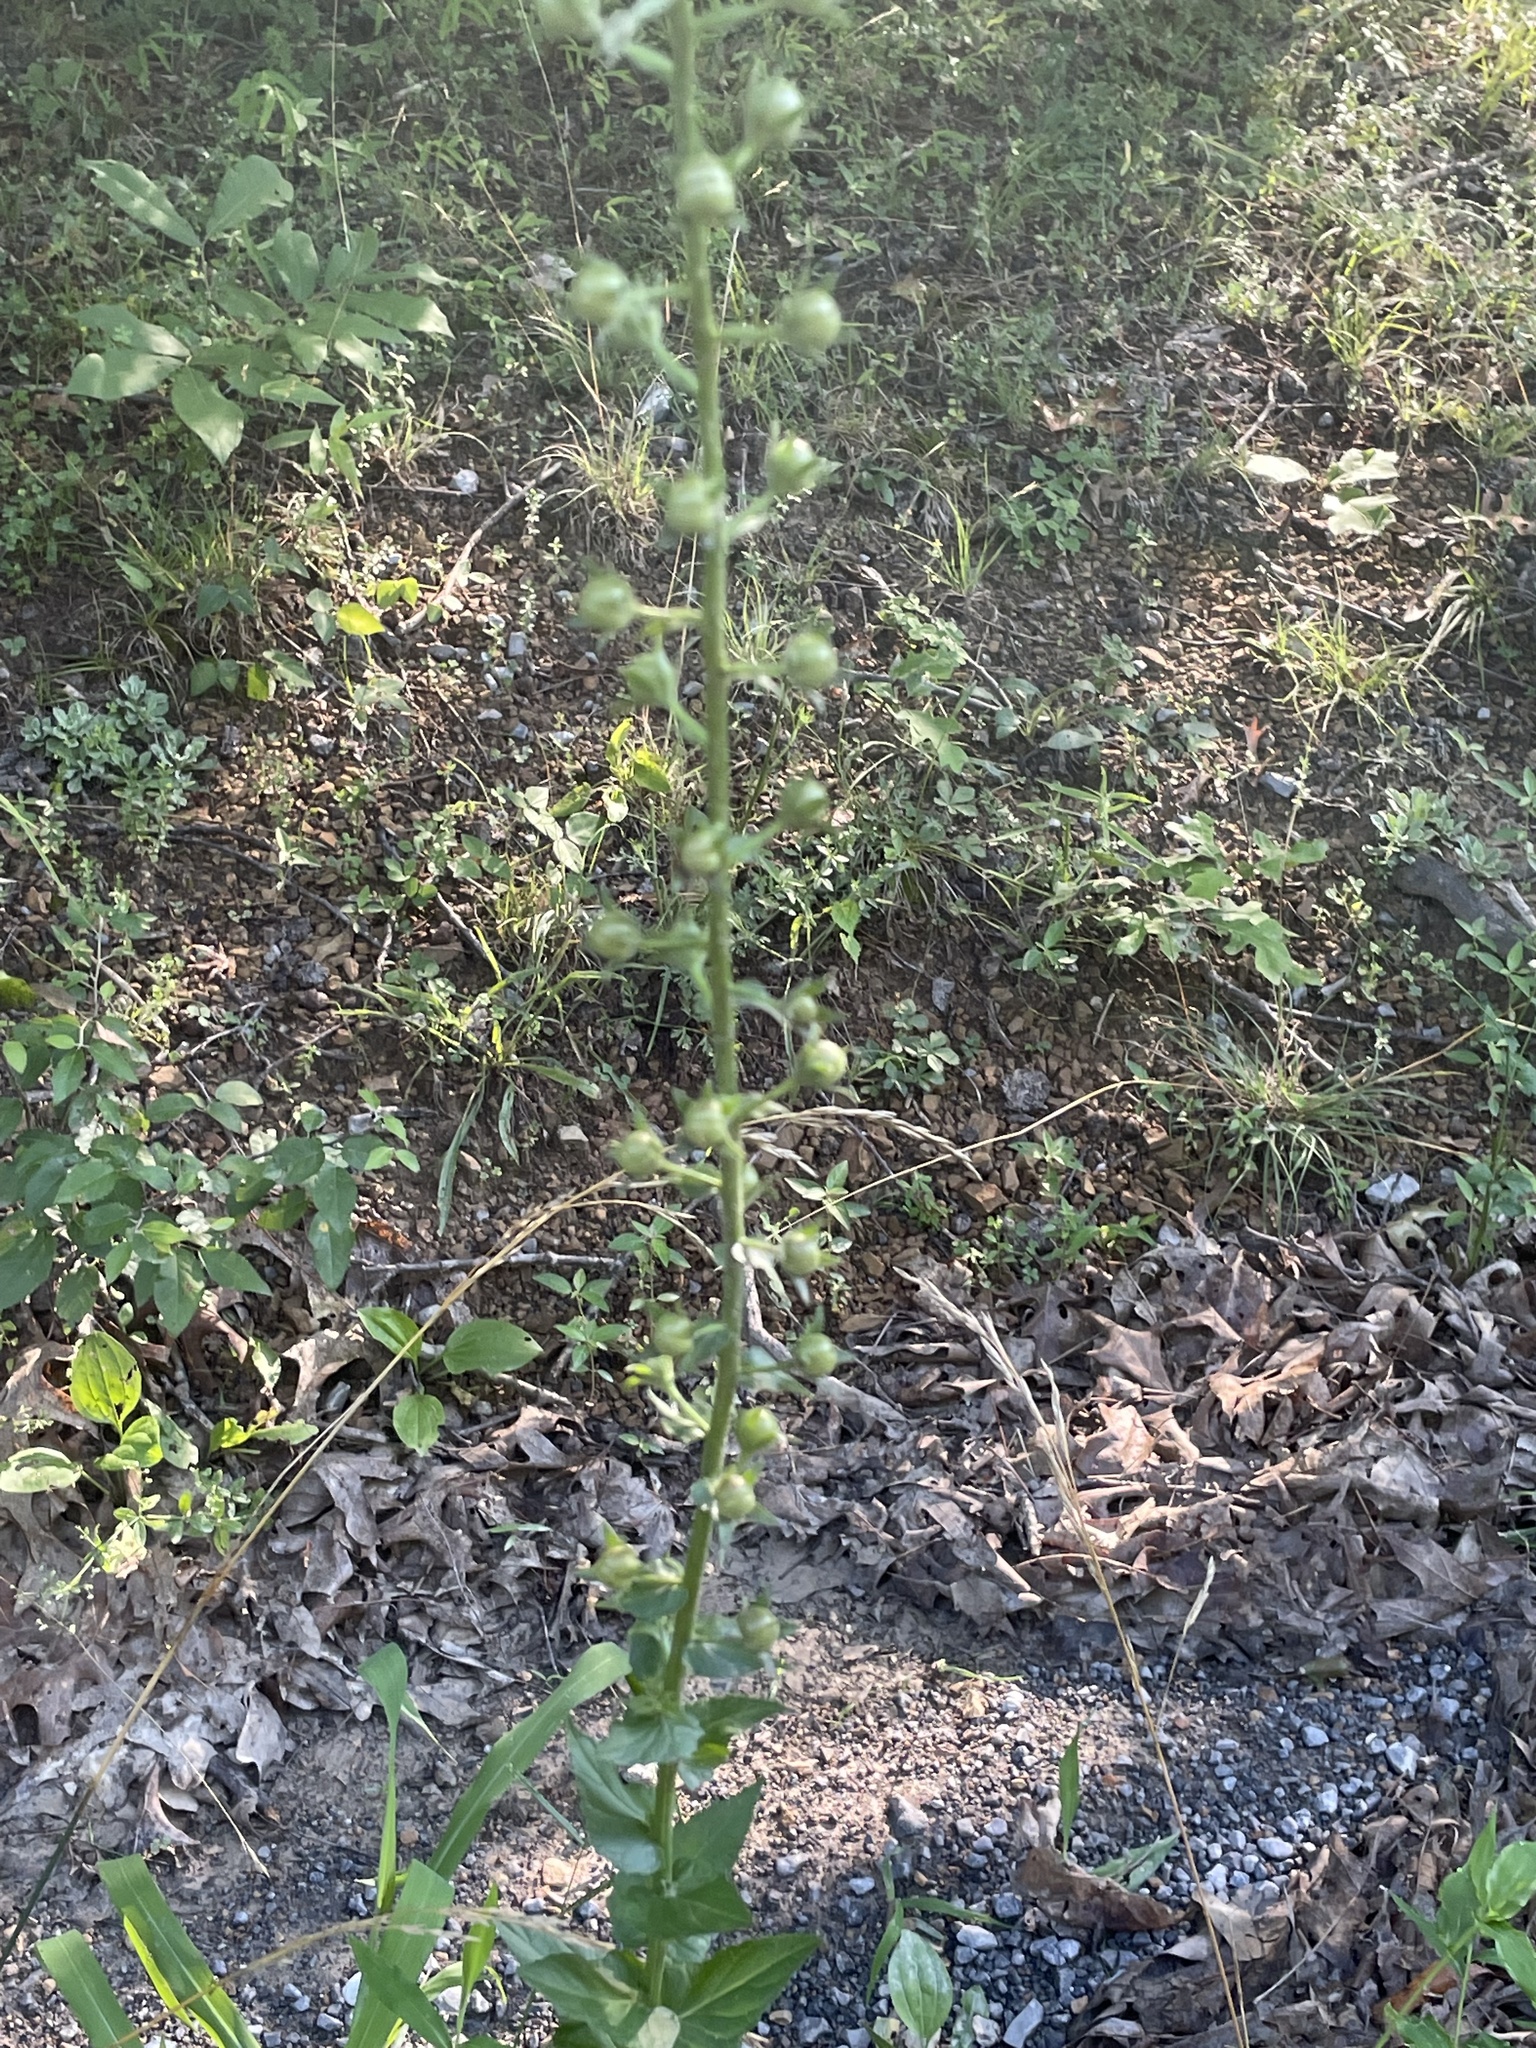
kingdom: Plantae
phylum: Tracheophyta
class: Magnoliopsida
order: Lamiales
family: Scrophulariaceae
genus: Verbascum
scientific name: Verbascum blattaria
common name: Moth mullein
